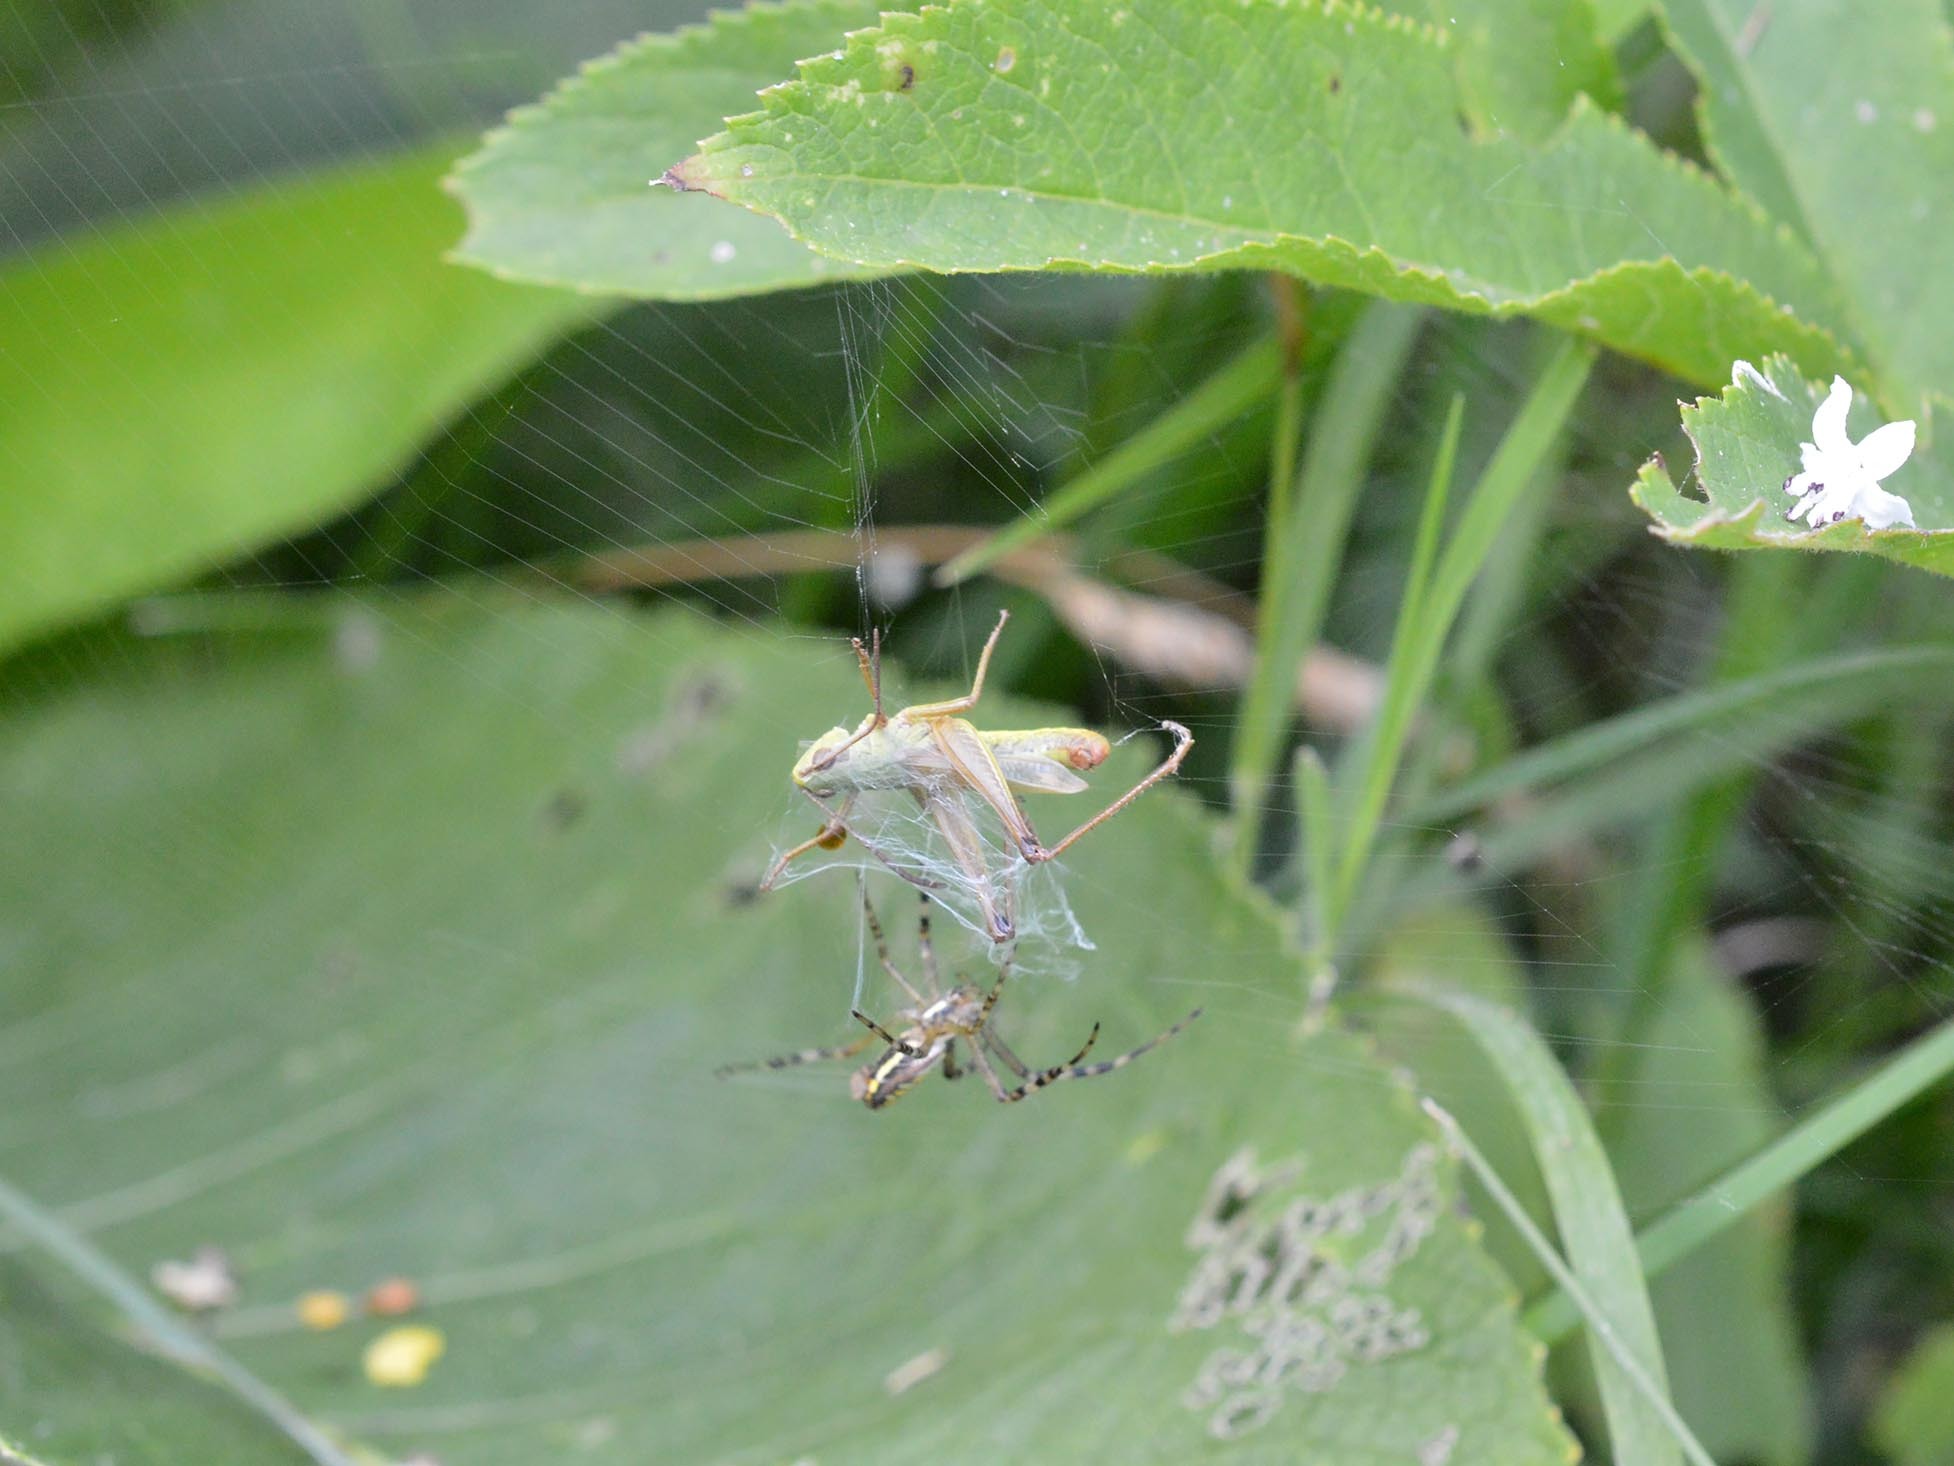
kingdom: Animalia
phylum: Arthropoda
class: Insecta
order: Orthoptera
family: Acrididae
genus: Pseudochorthippus
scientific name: Pseudochorthippus parallelus
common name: Meadow grasshopper
